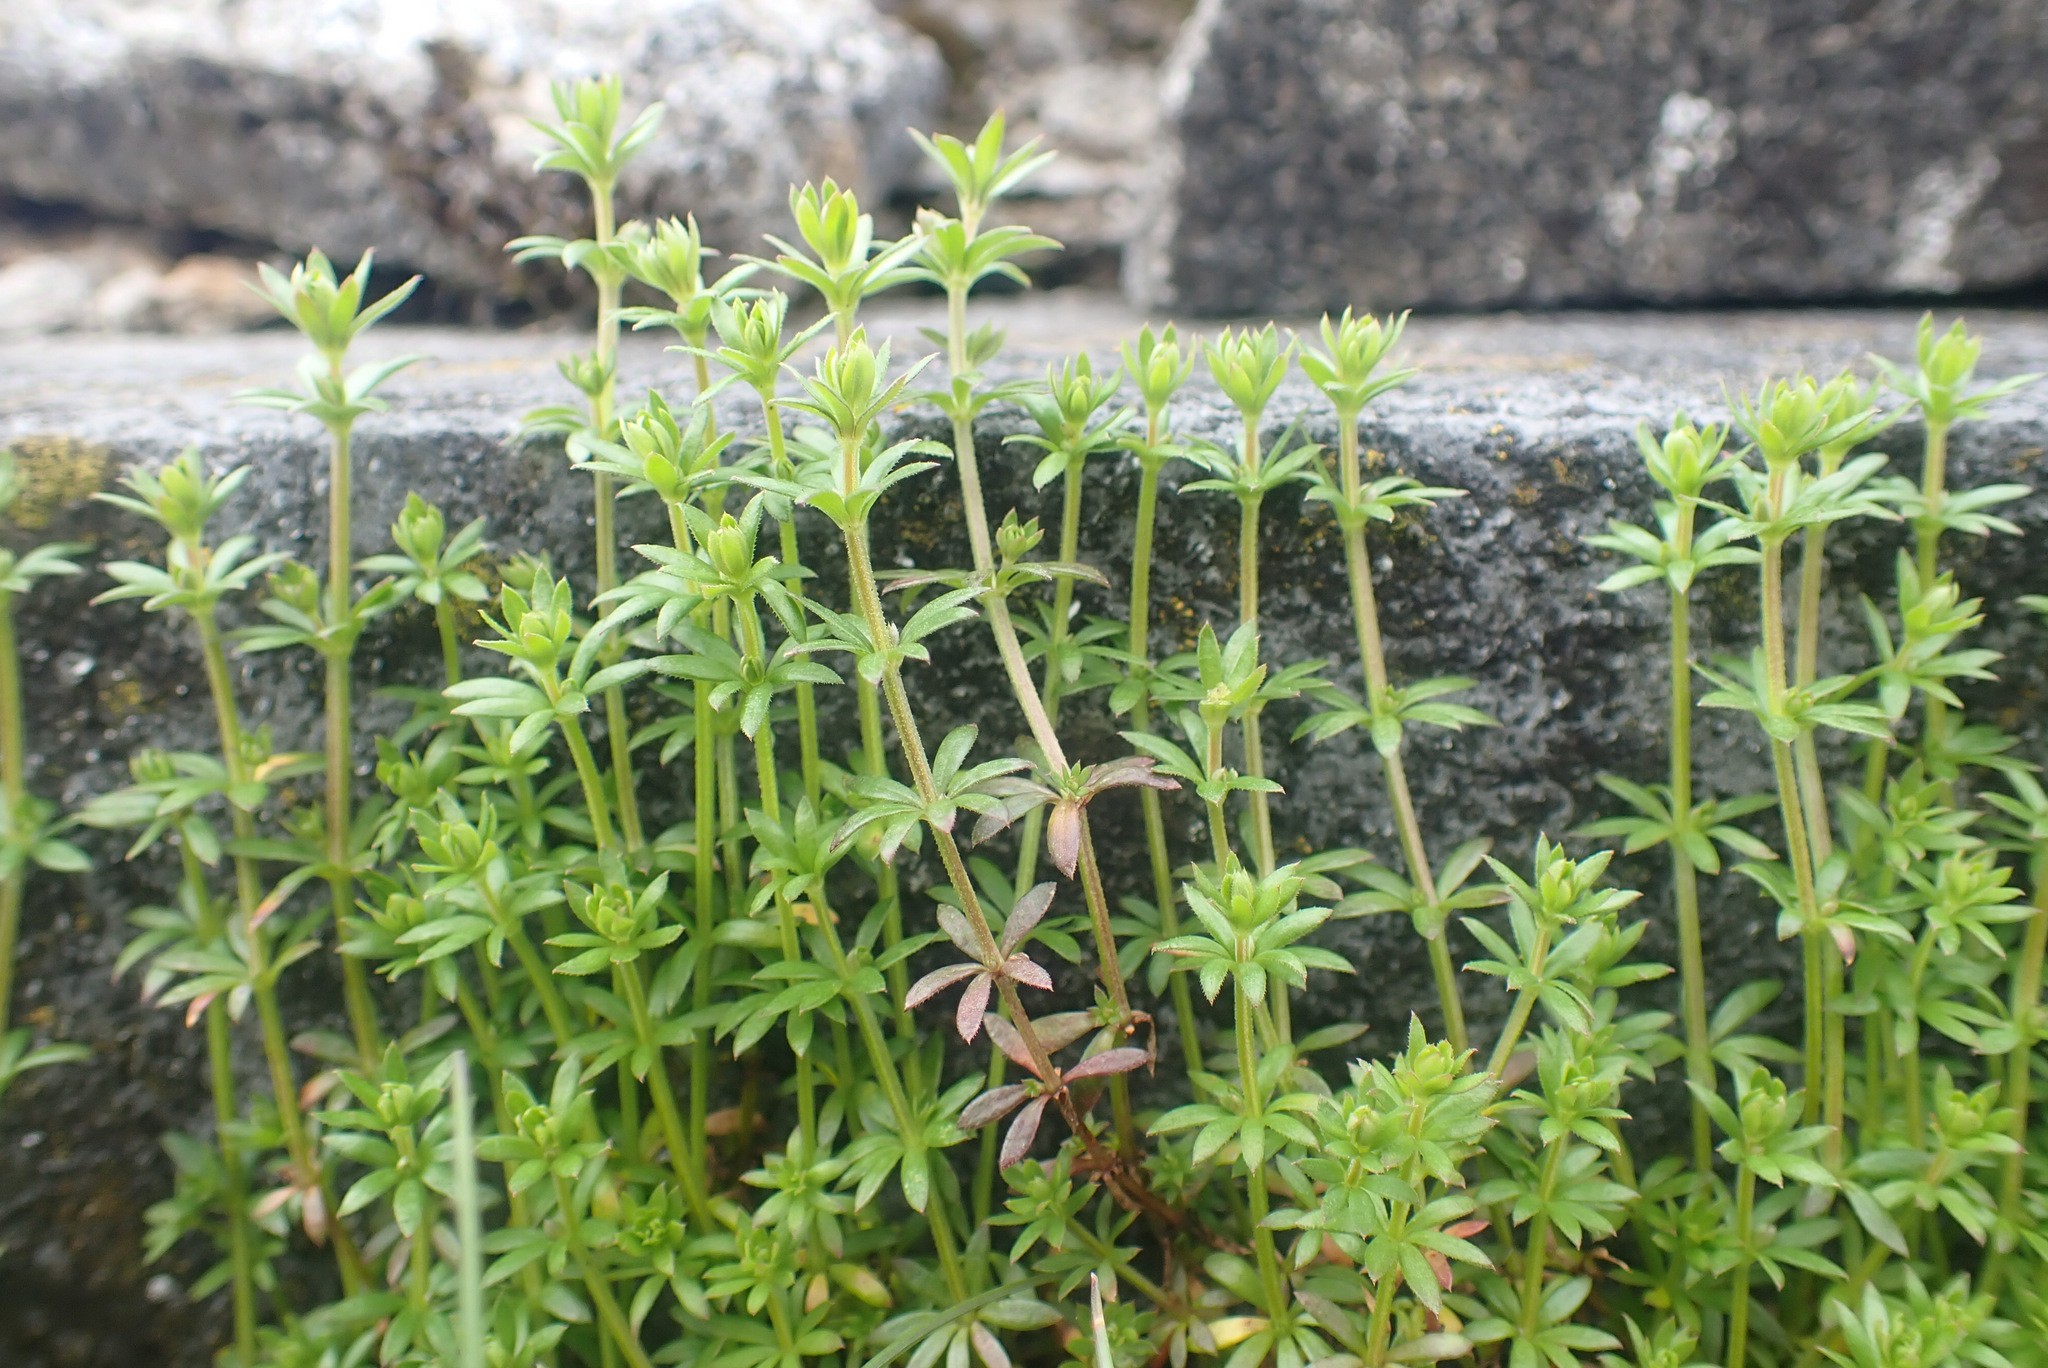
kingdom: Plantae
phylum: Tracheophyta
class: Magnoliopsida
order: Gentianales
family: Rubiaceae
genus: Galium
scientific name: Galium aparine
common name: Cleavers
